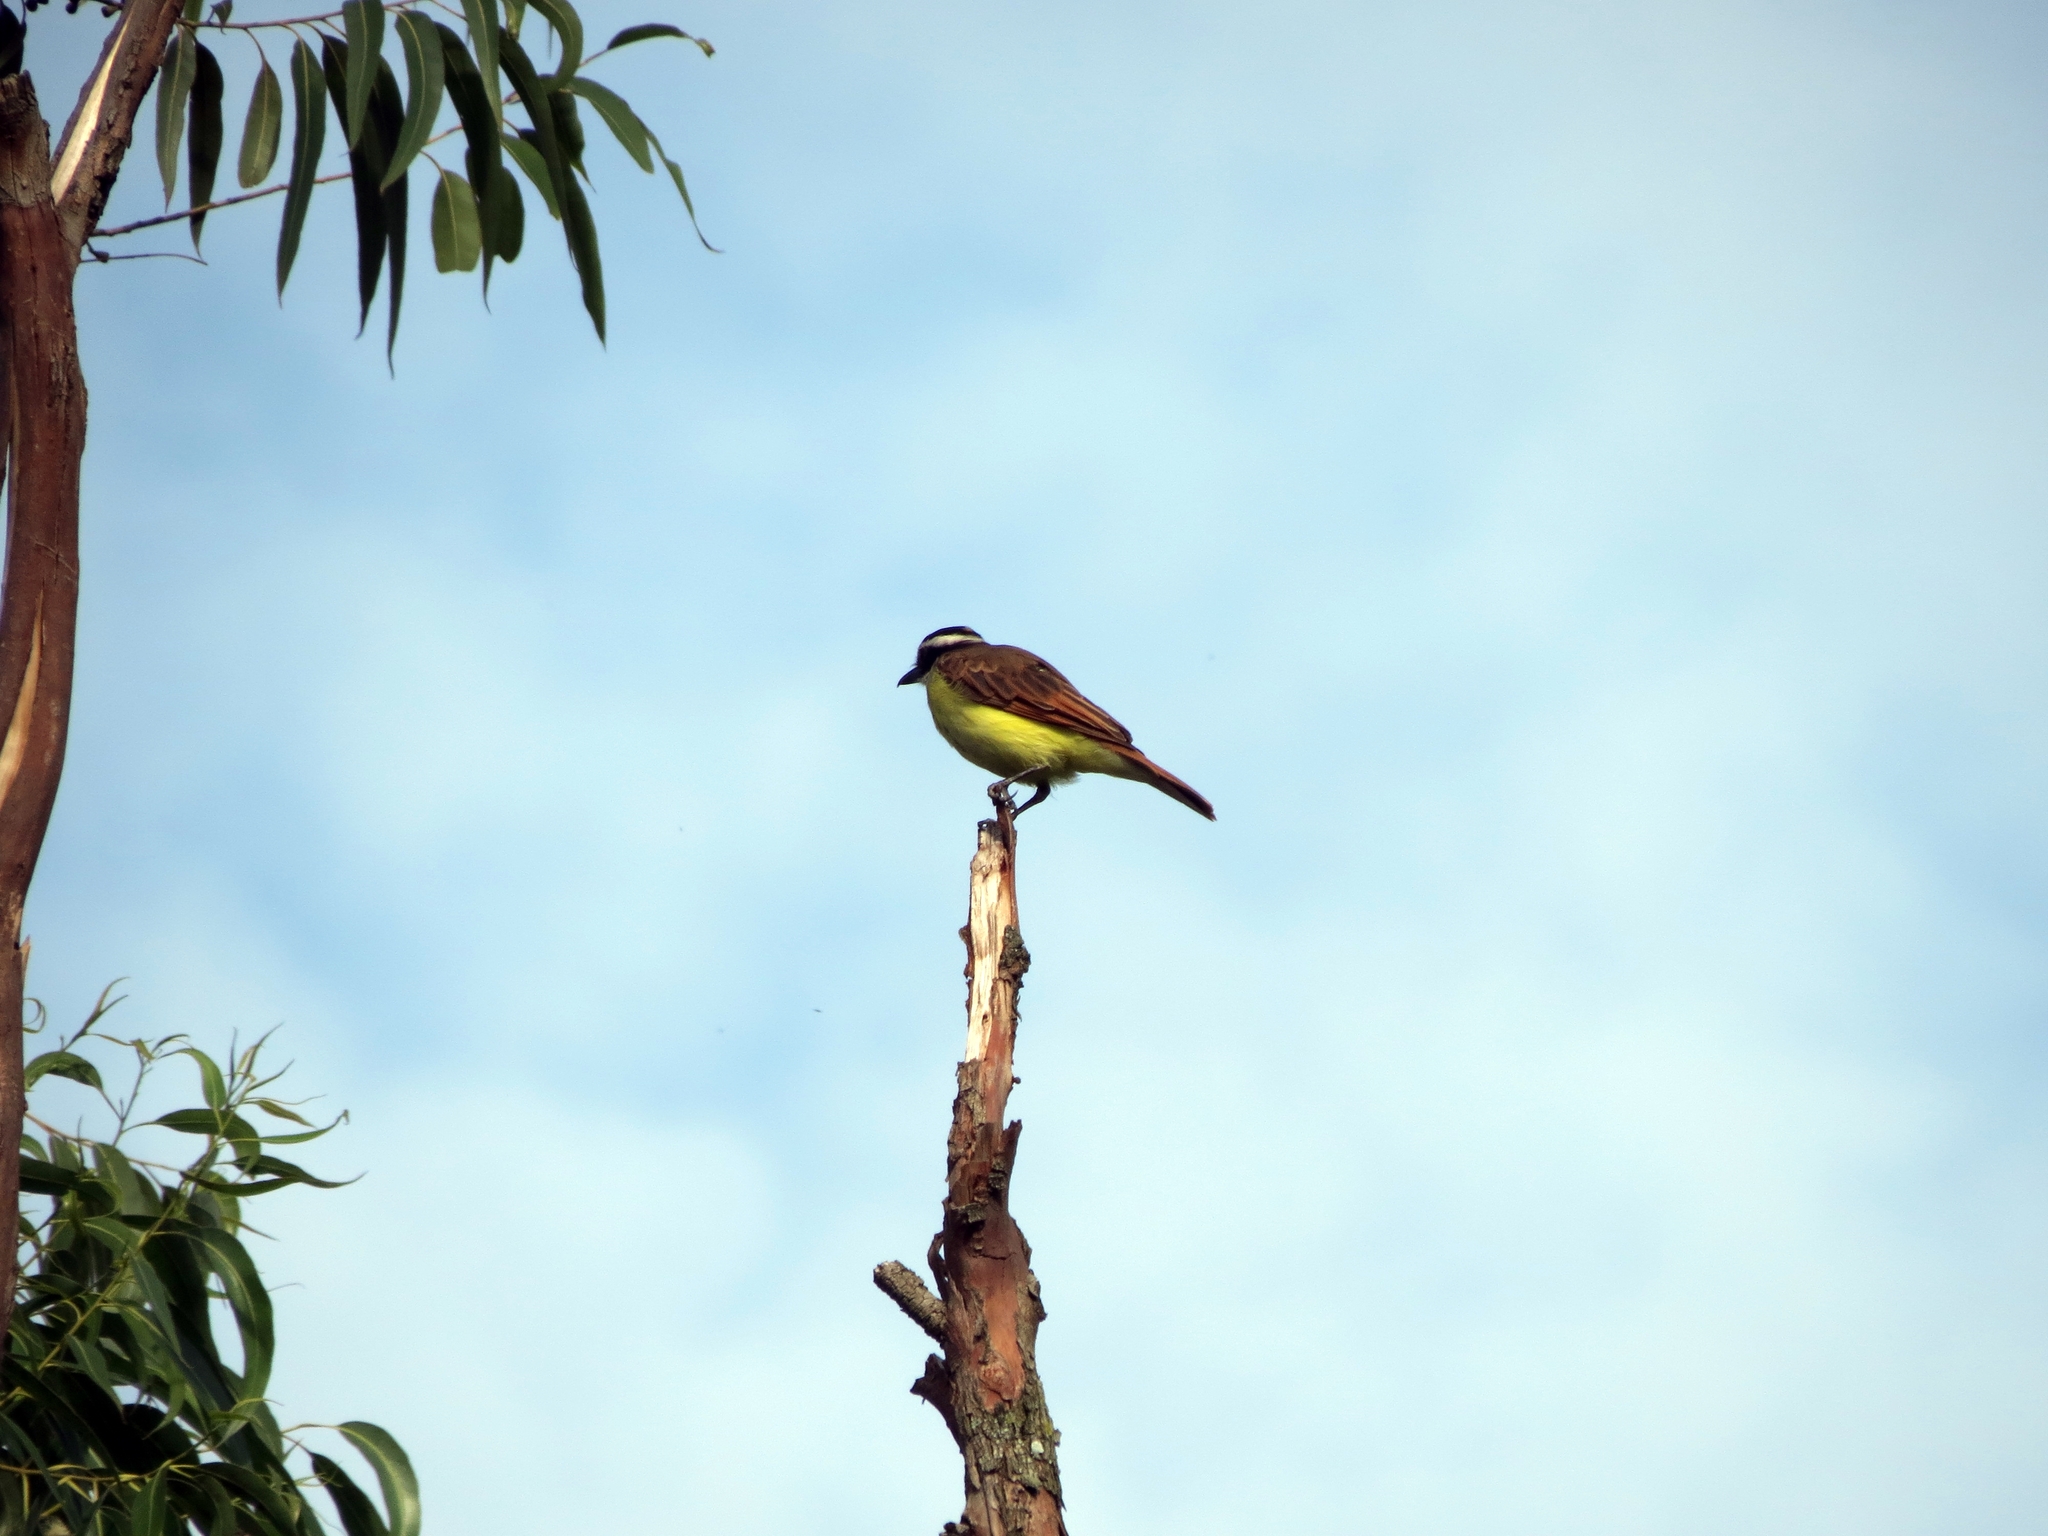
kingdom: Animalia
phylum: Chordata
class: Aves
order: Passeriformes
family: Tyrannidae
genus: Pitangus
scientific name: Pitangus sulphuratus
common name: Great kiskadee
